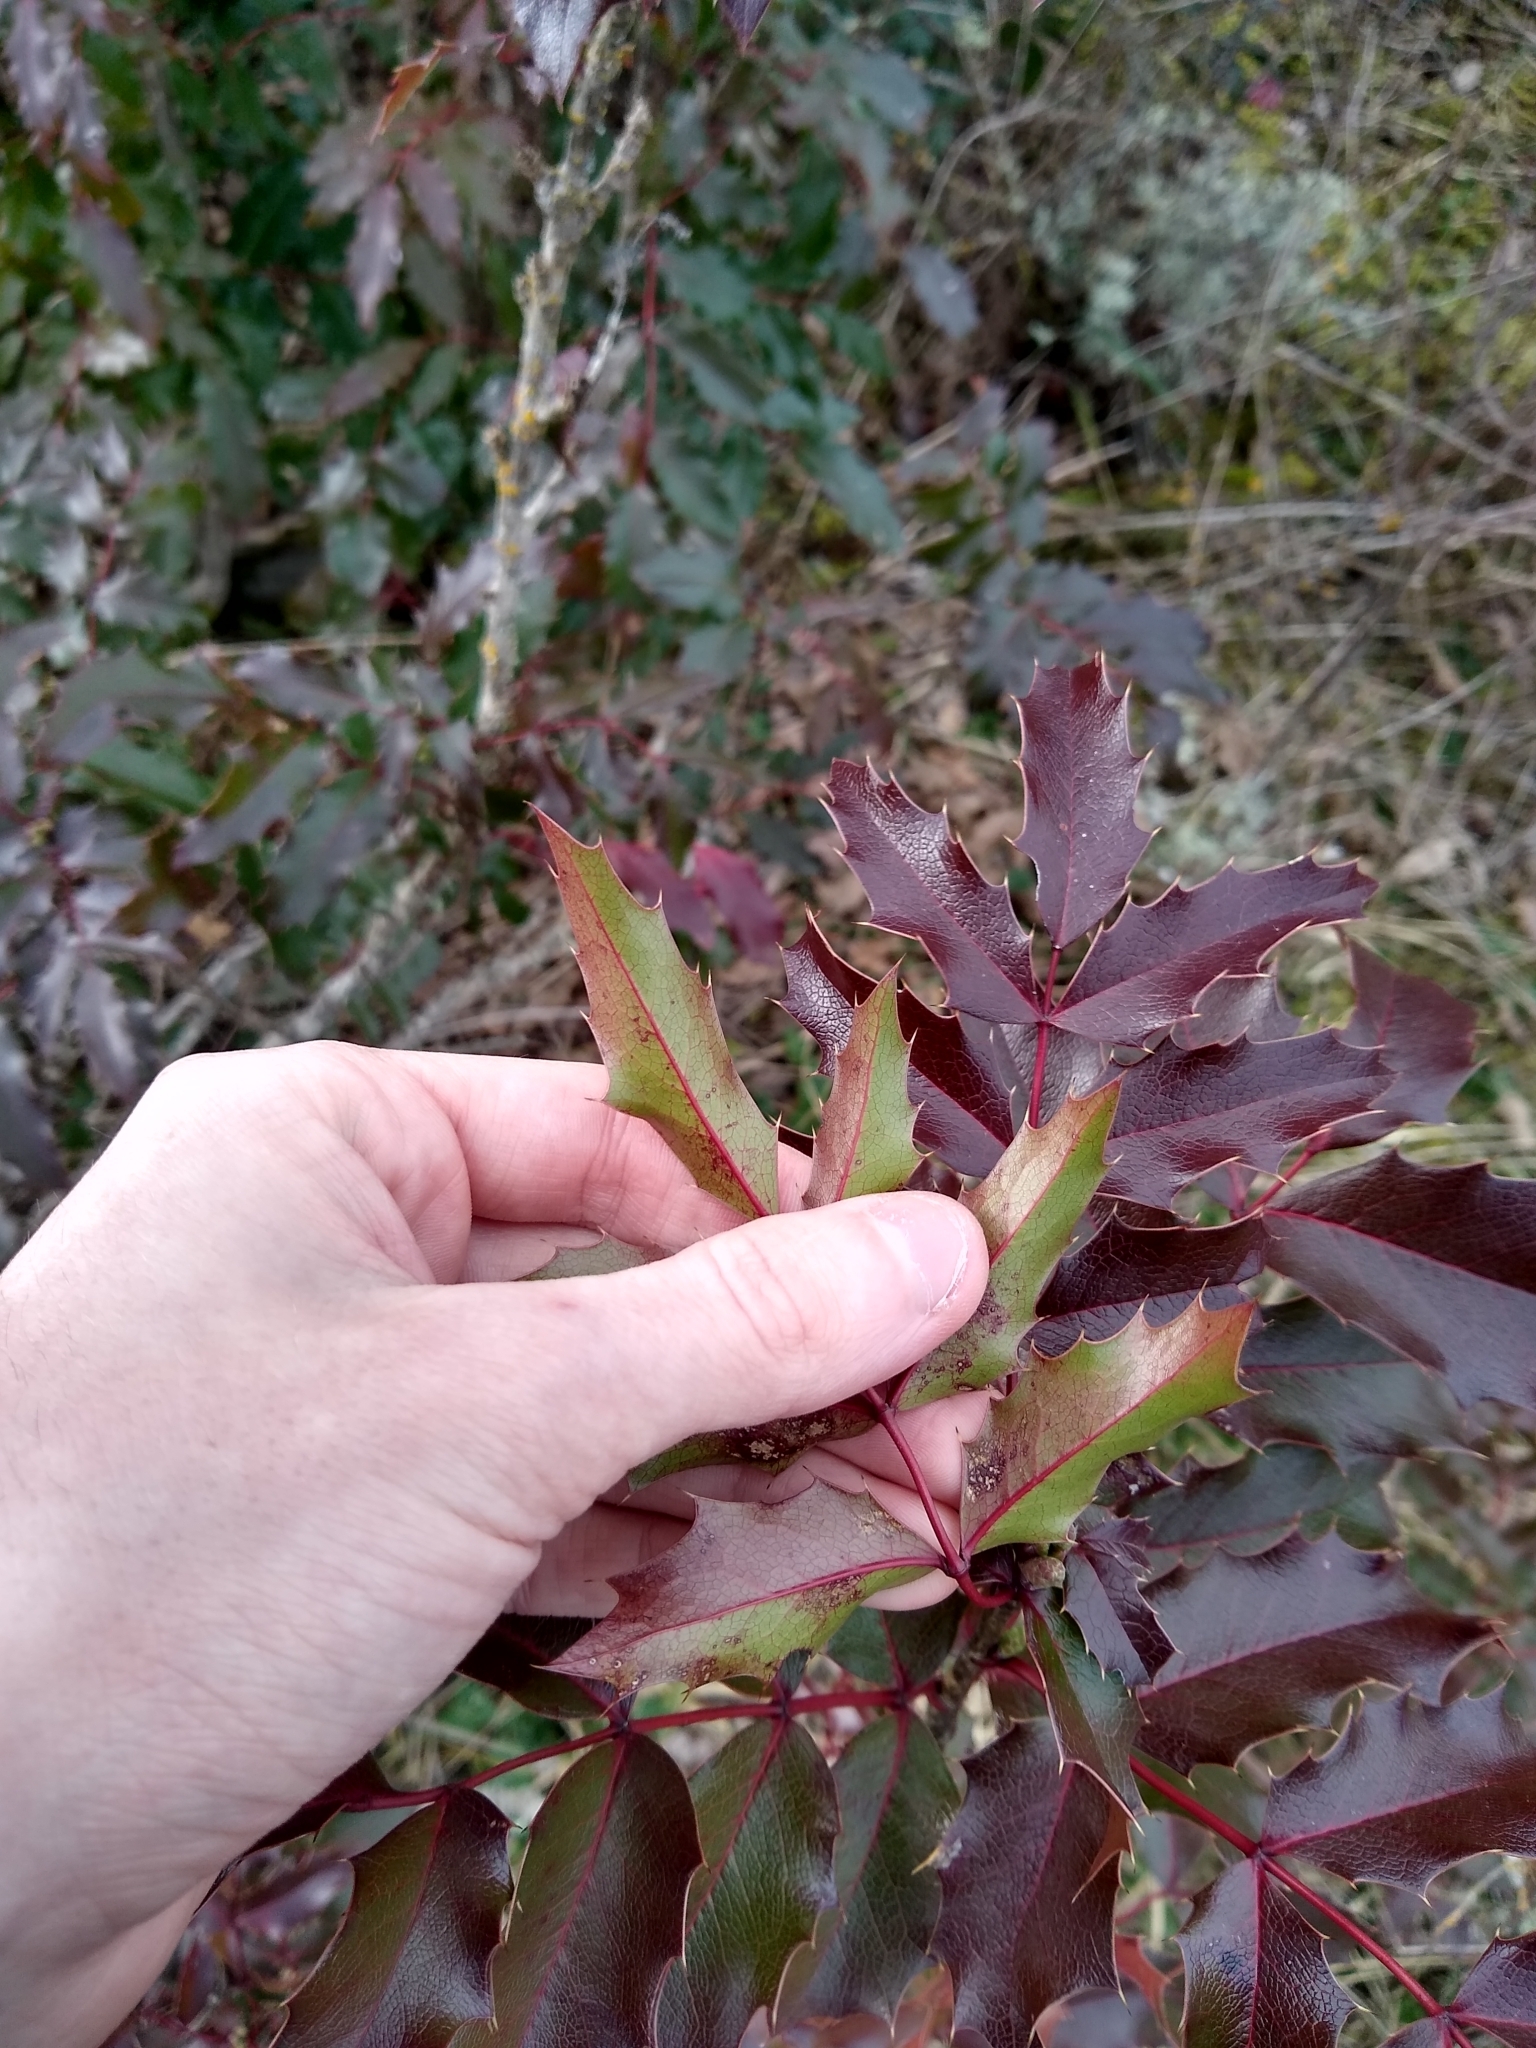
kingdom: Plantae
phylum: Tracheophyta
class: Magnoliopsida
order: Ranunculales
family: Berberidaceae
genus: Mahonia
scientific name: Mahonia aquifolium
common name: Oregon-grape
